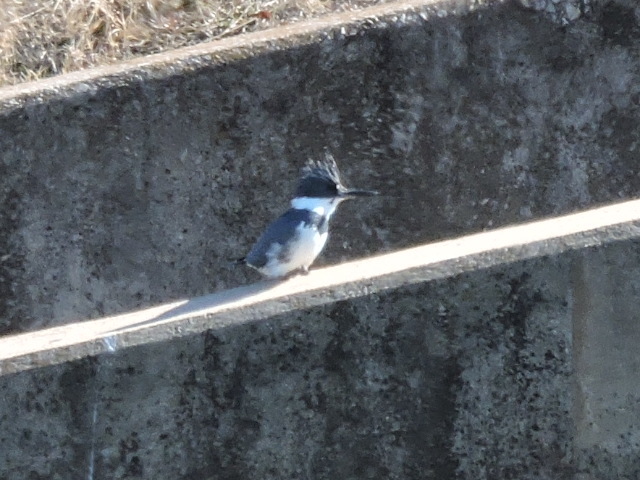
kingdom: Animalia
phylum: Chordata
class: Aves
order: Coraciiformes
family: Alcedinidae
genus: Megaceryle
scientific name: Megaceryle alcyon
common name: Belted kingfisher
